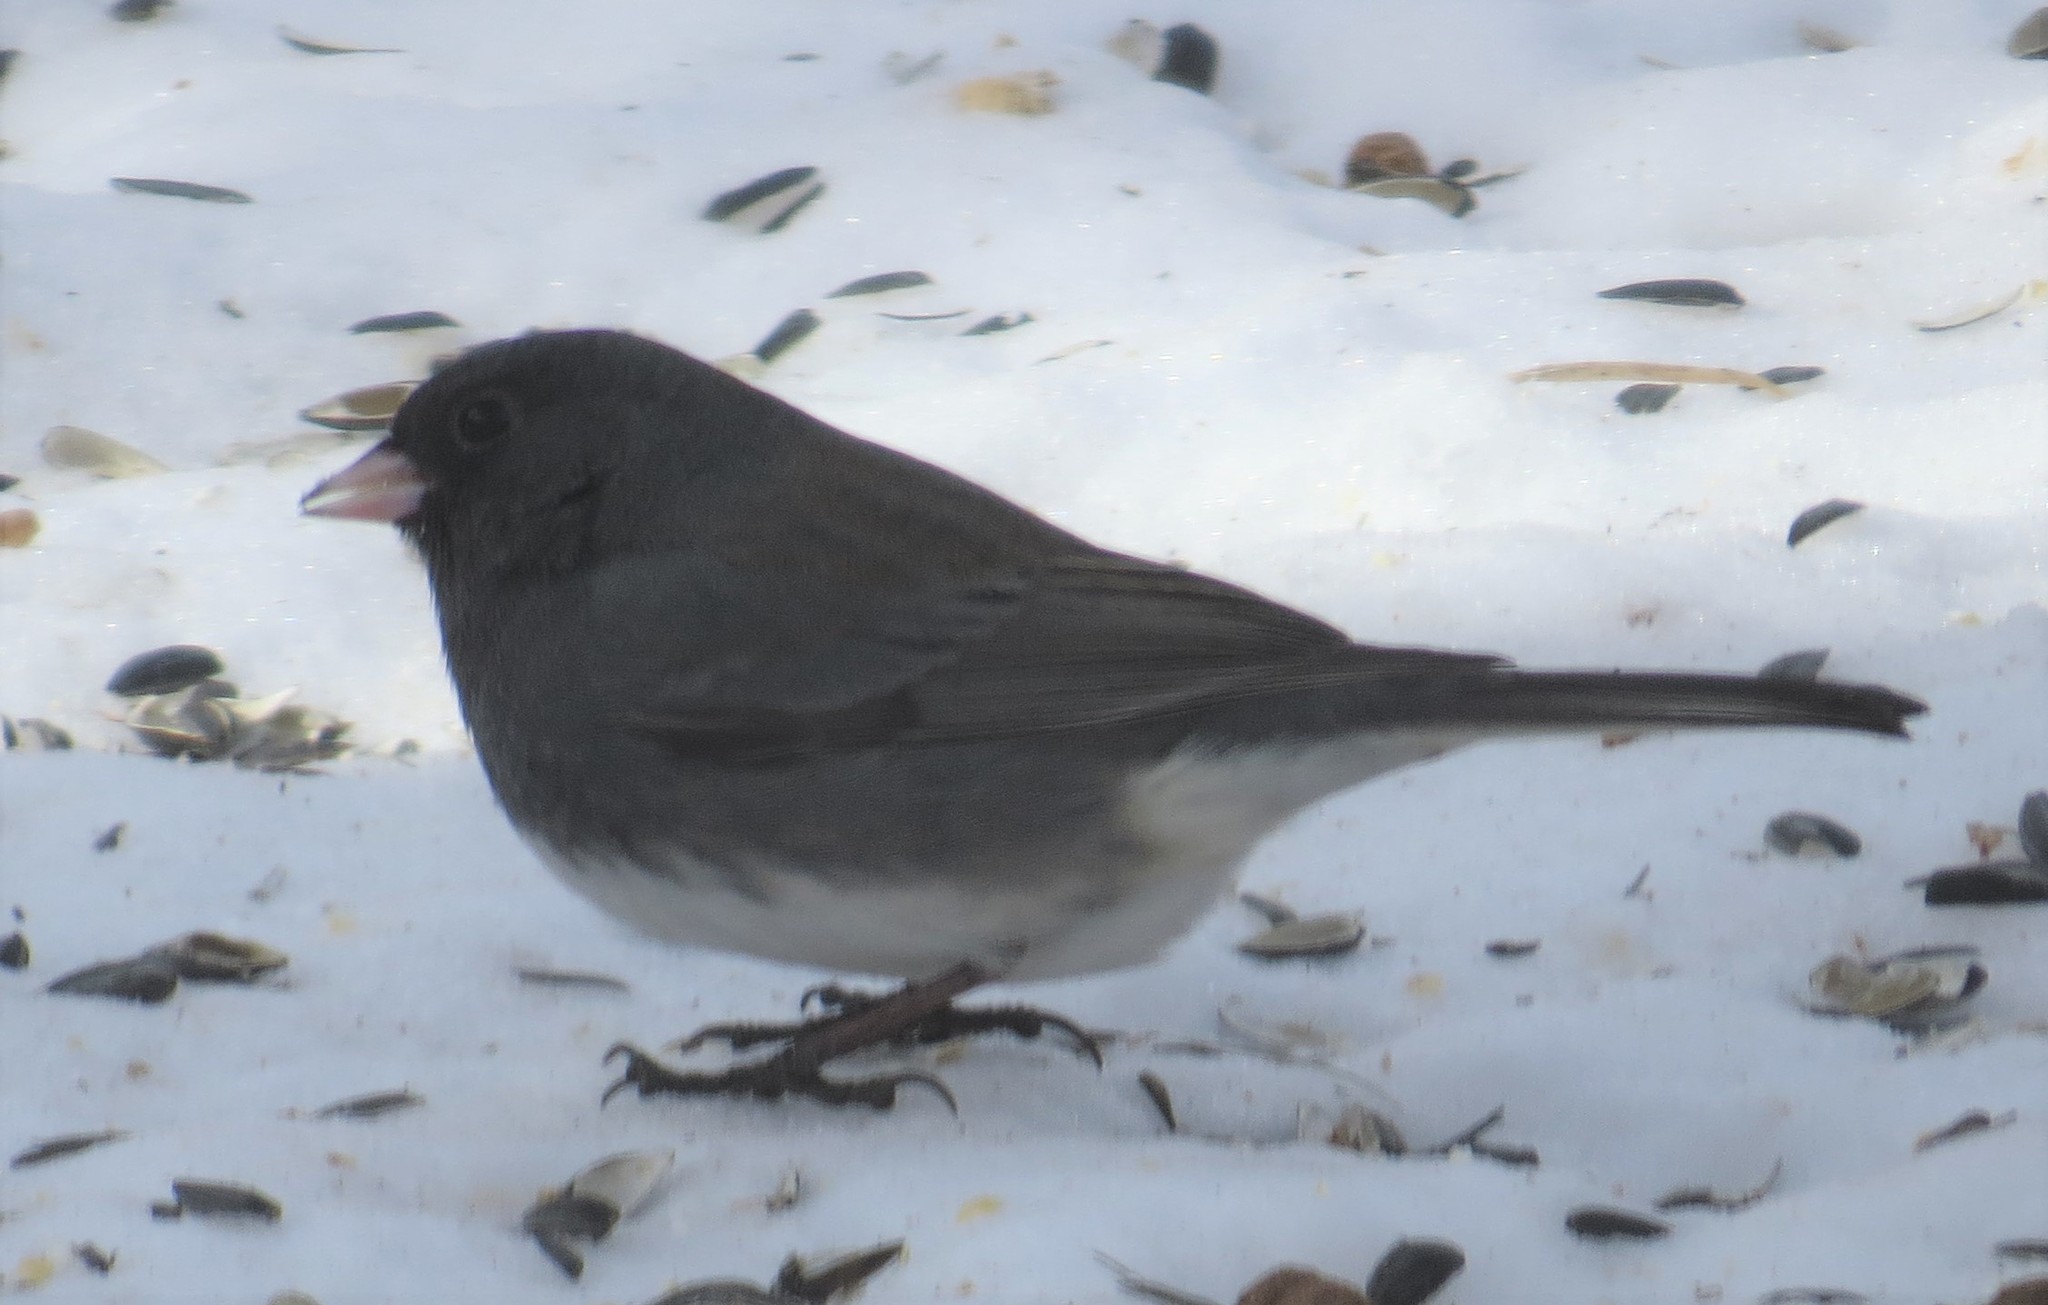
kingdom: Animalia
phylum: Chordata
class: Aves
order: Passeriformes
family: Passerellidae
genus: Junco
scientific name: Junco hyemalis
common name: Dark-eyed junco
